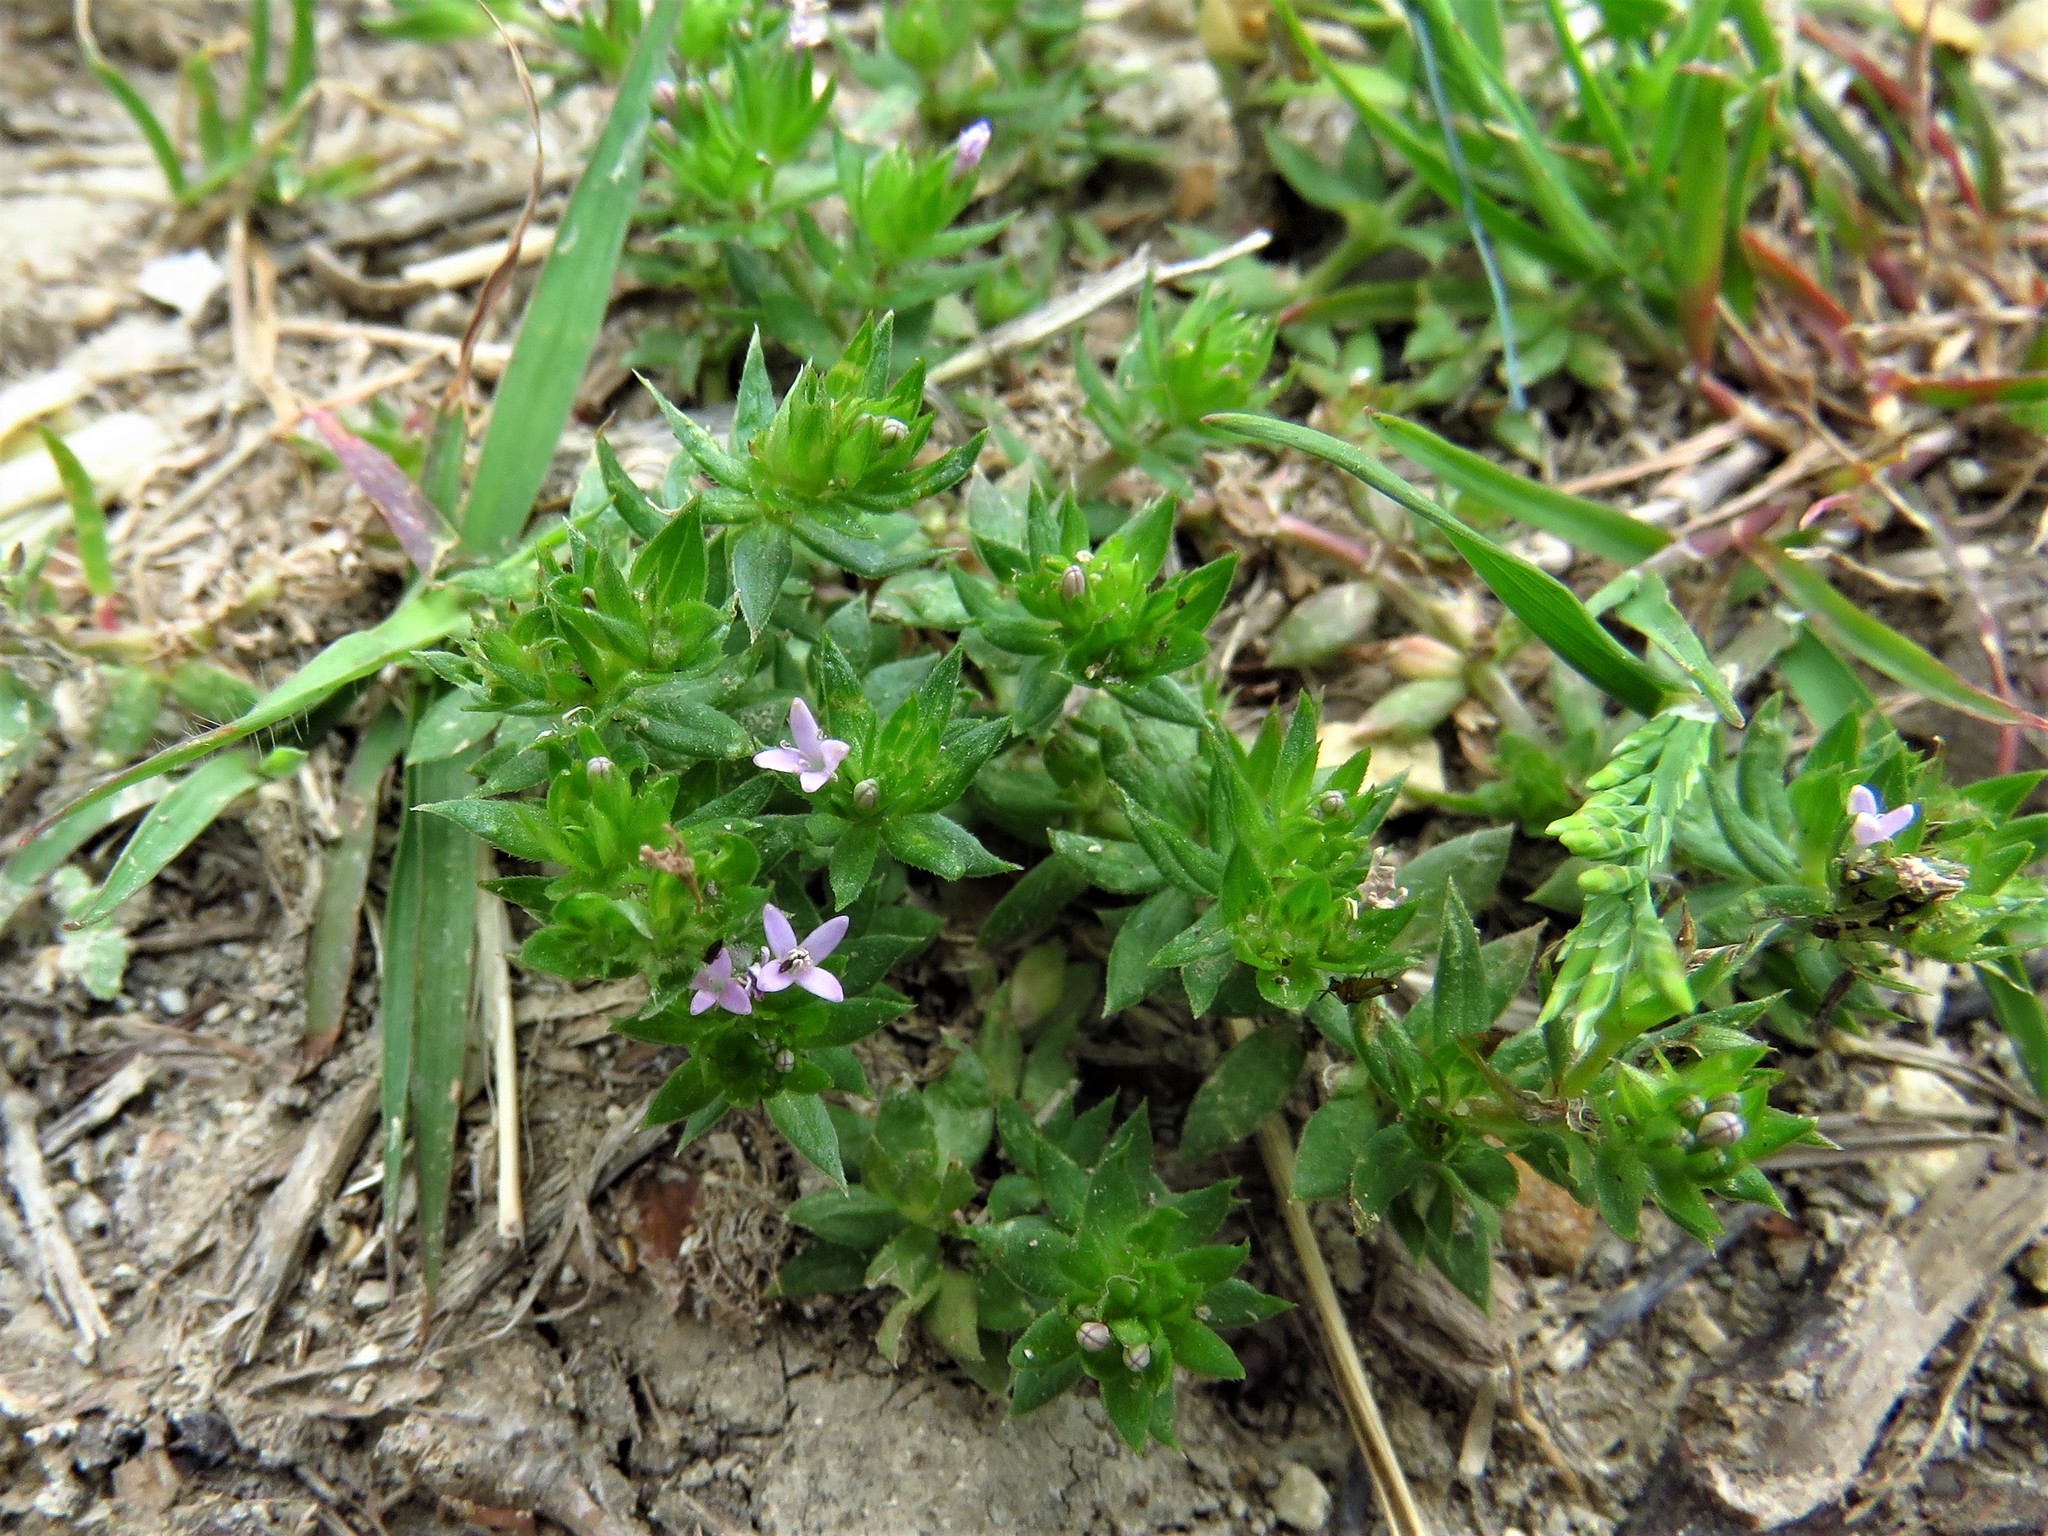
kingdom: Plantae
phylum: Tracheophyta
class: Magnoliopsida
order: Gentianales
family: Rubiaceae
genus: Sherardia
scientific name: Sherardia arvensis
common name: Field madder
